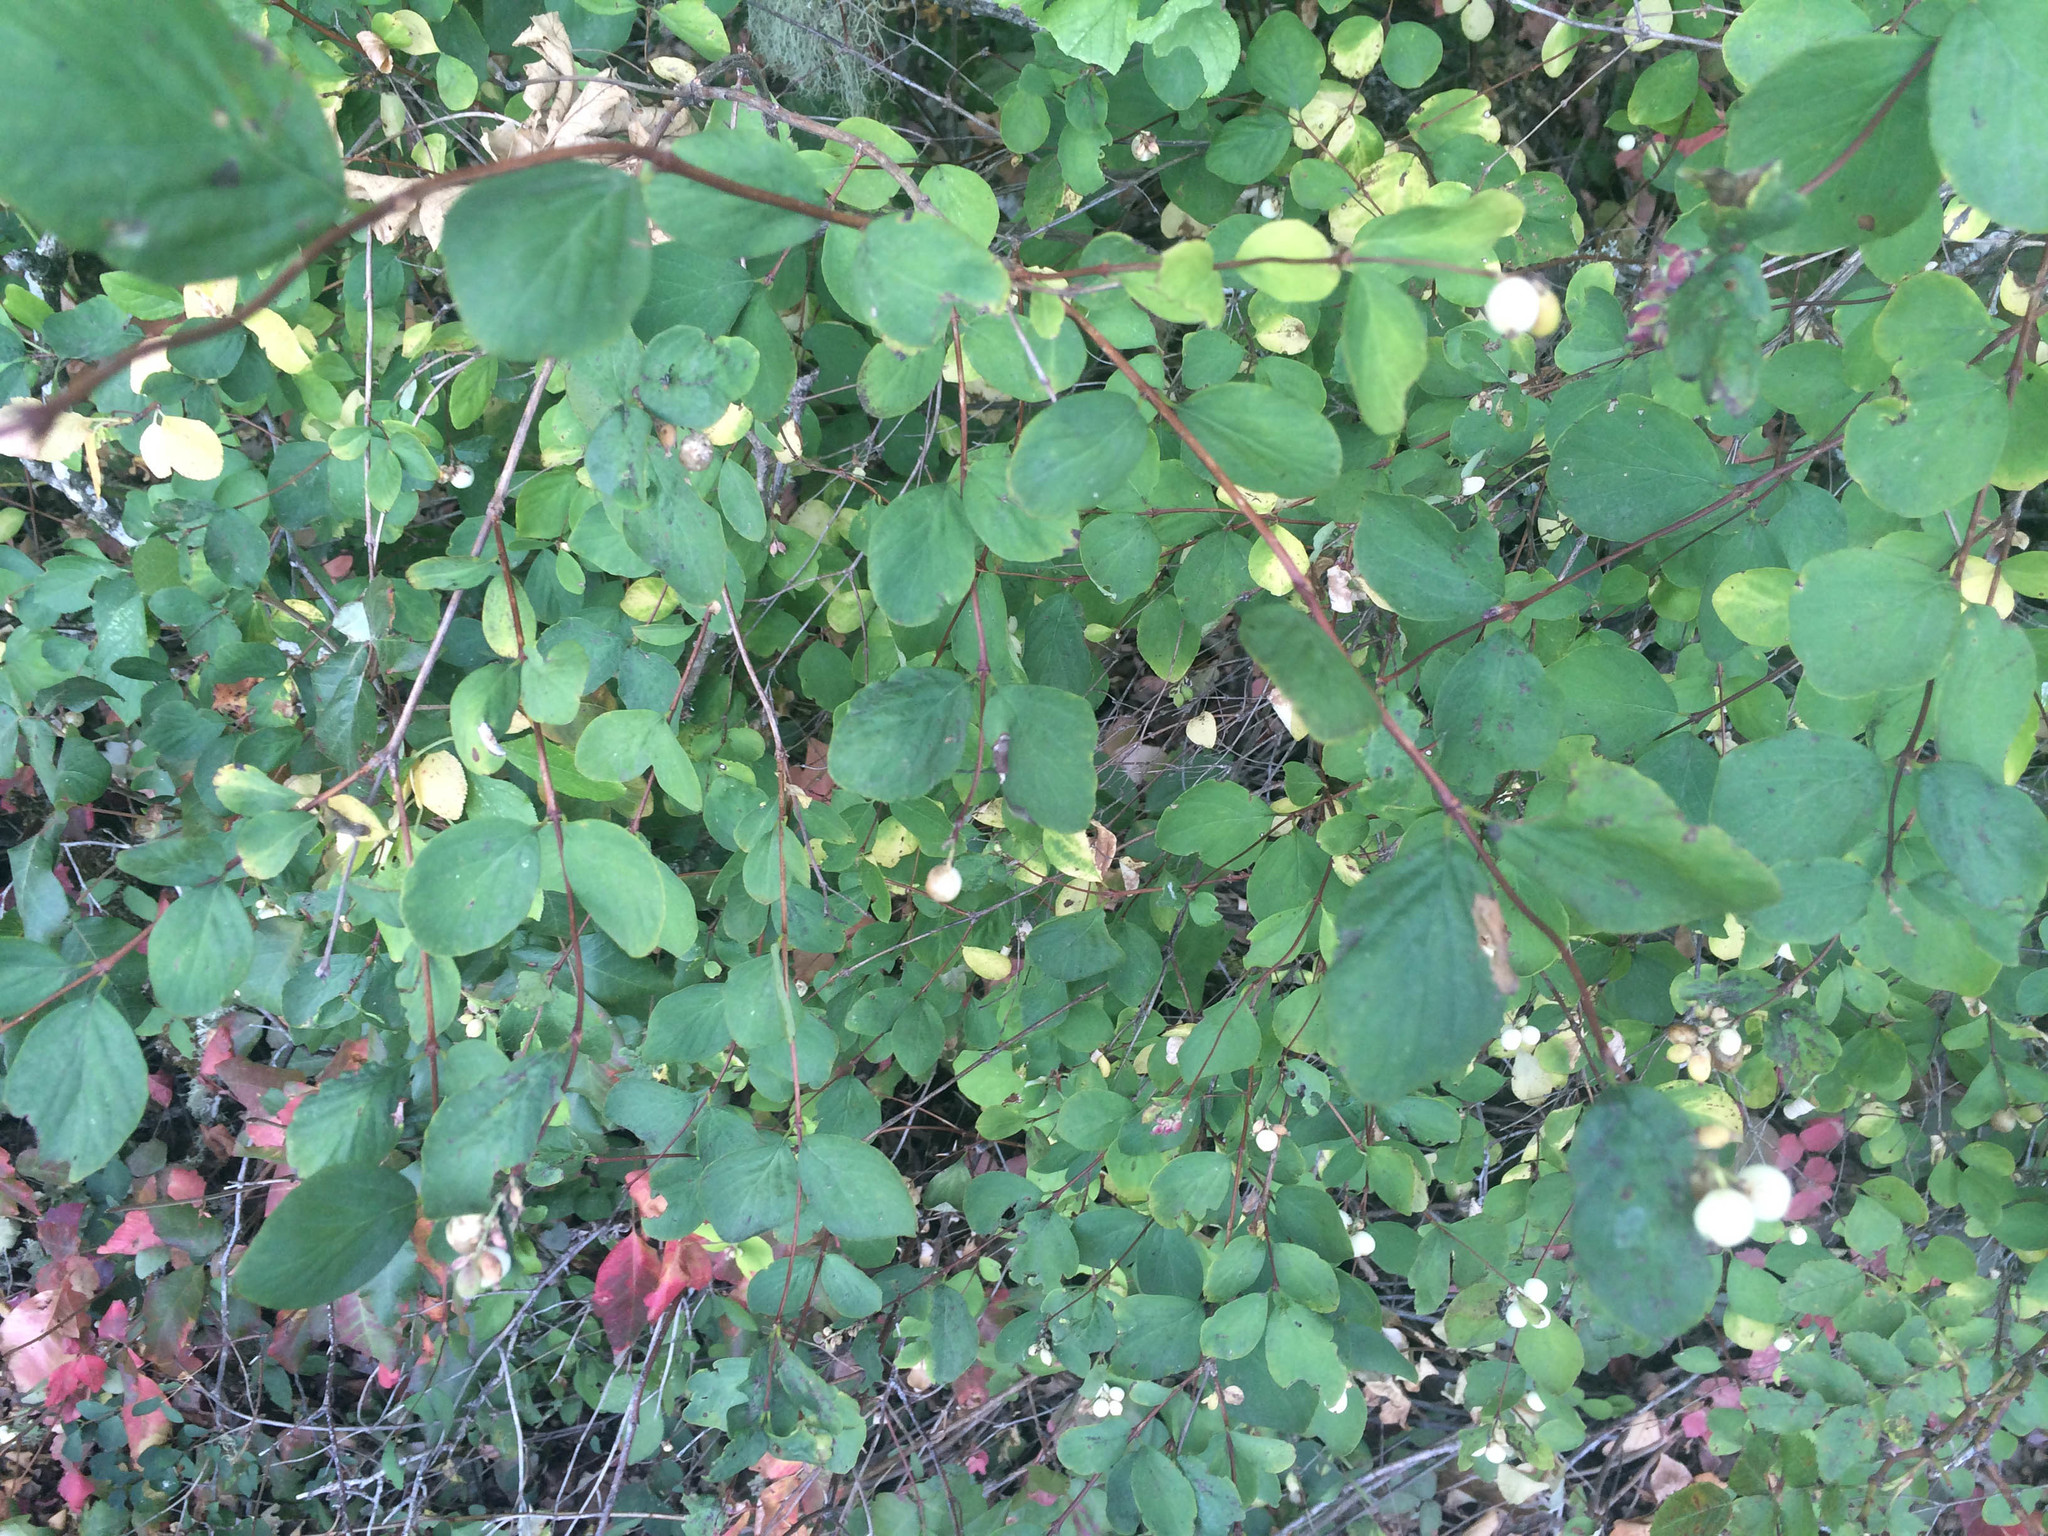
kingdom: Plantae
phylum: Tracheophyta
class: Magnoliopsida
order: Dipsacales
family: Caprifoliaceae
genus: Symphoricarpos
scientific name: Symphoricarpos albus
